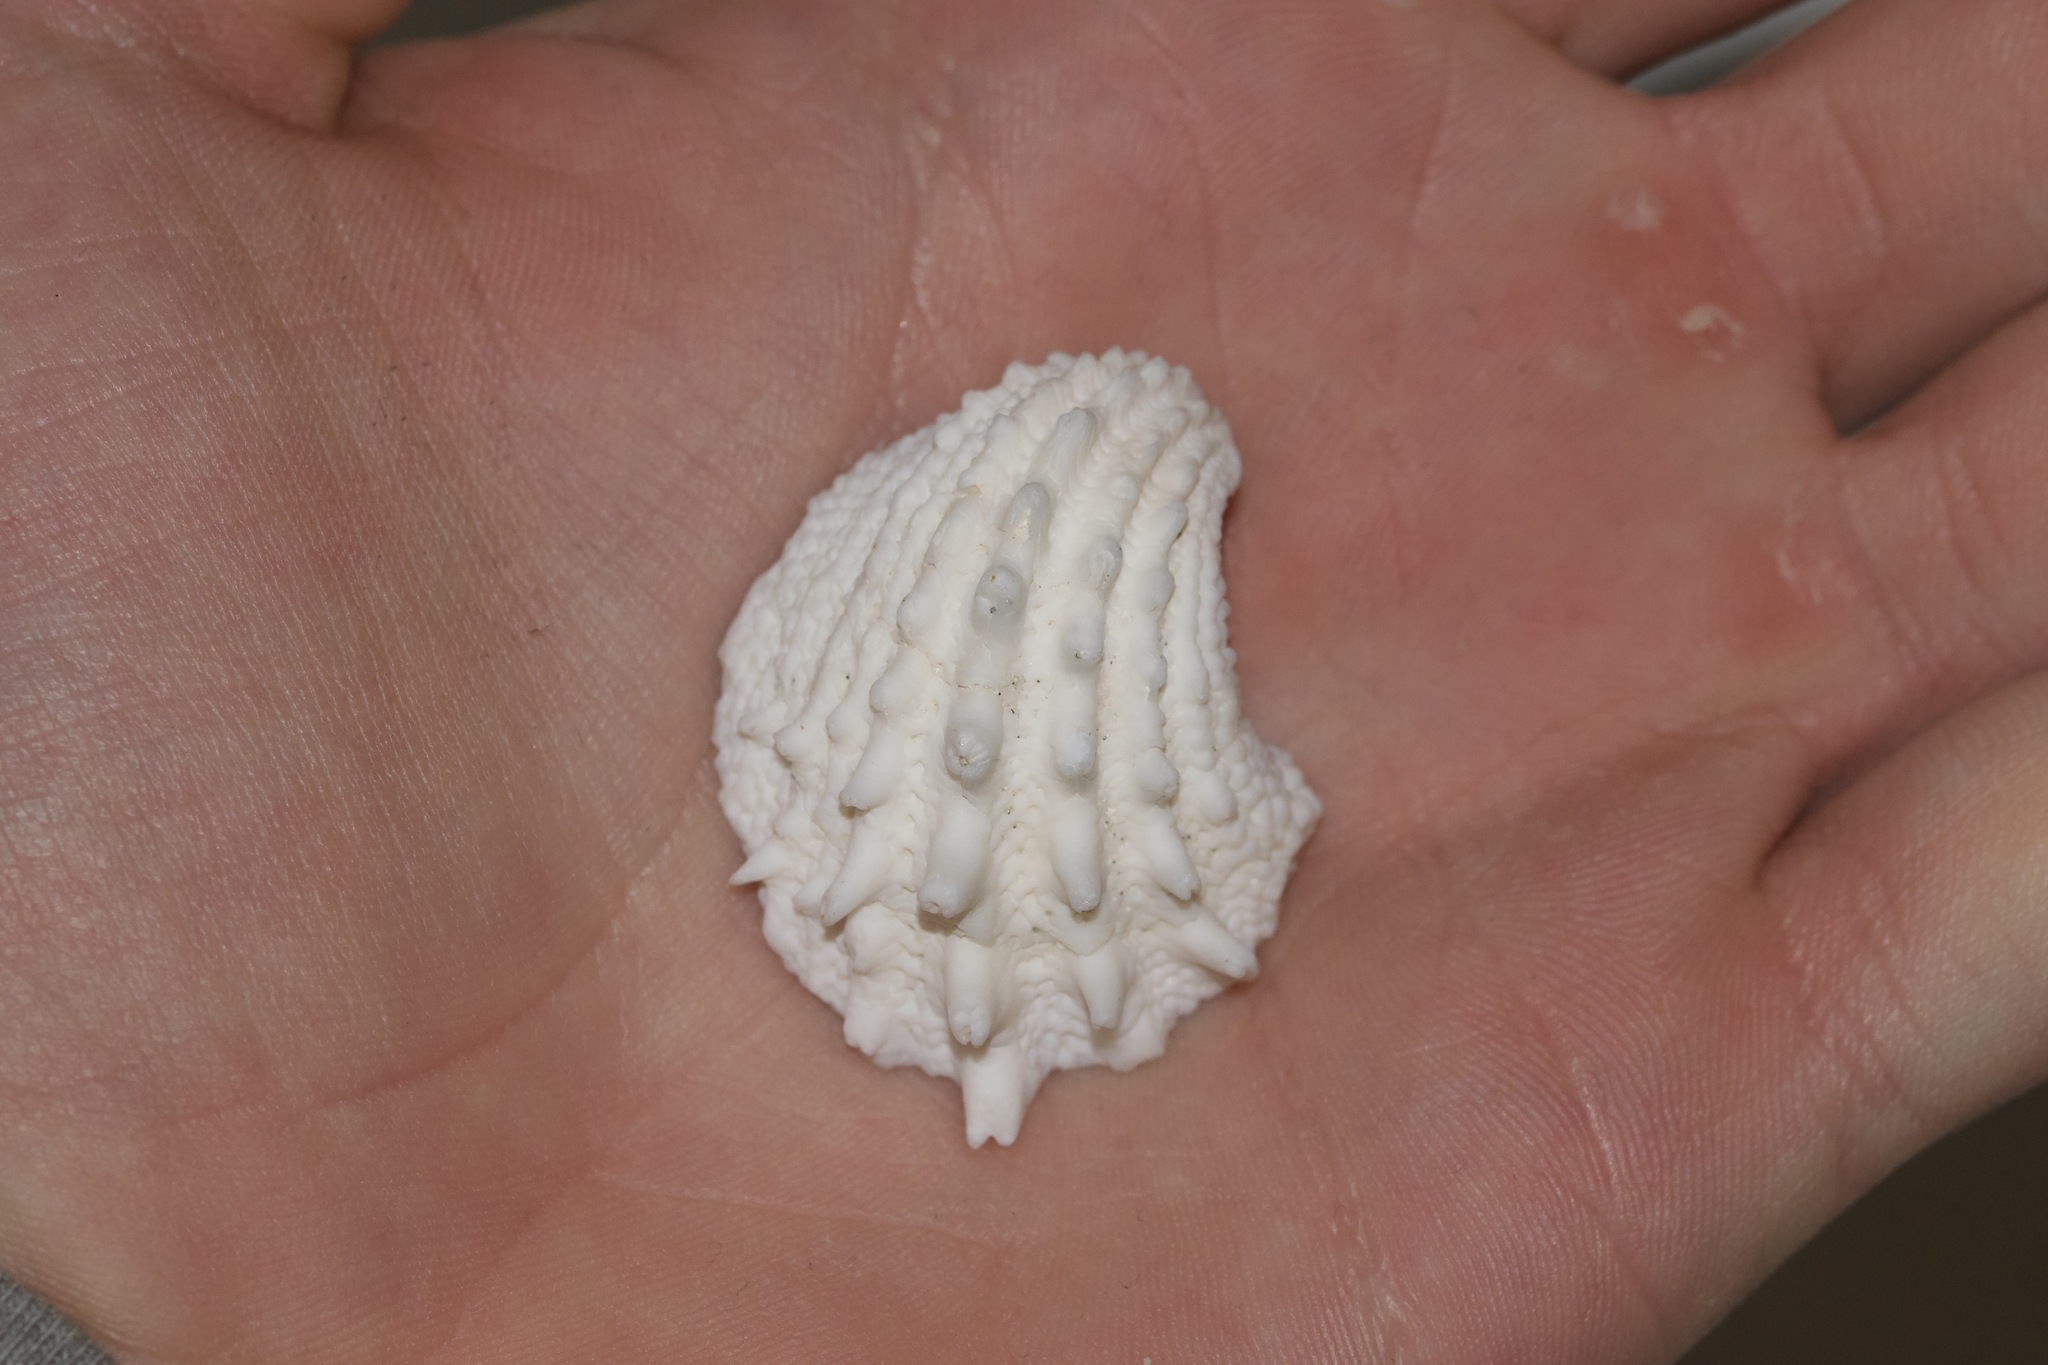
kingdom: Animalia
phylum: Mollusca
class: Bivalvia
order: Venerida
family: Chamidae
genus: Arcinella
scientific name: Arcinella cornuta
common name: Florida spiny jewel box
